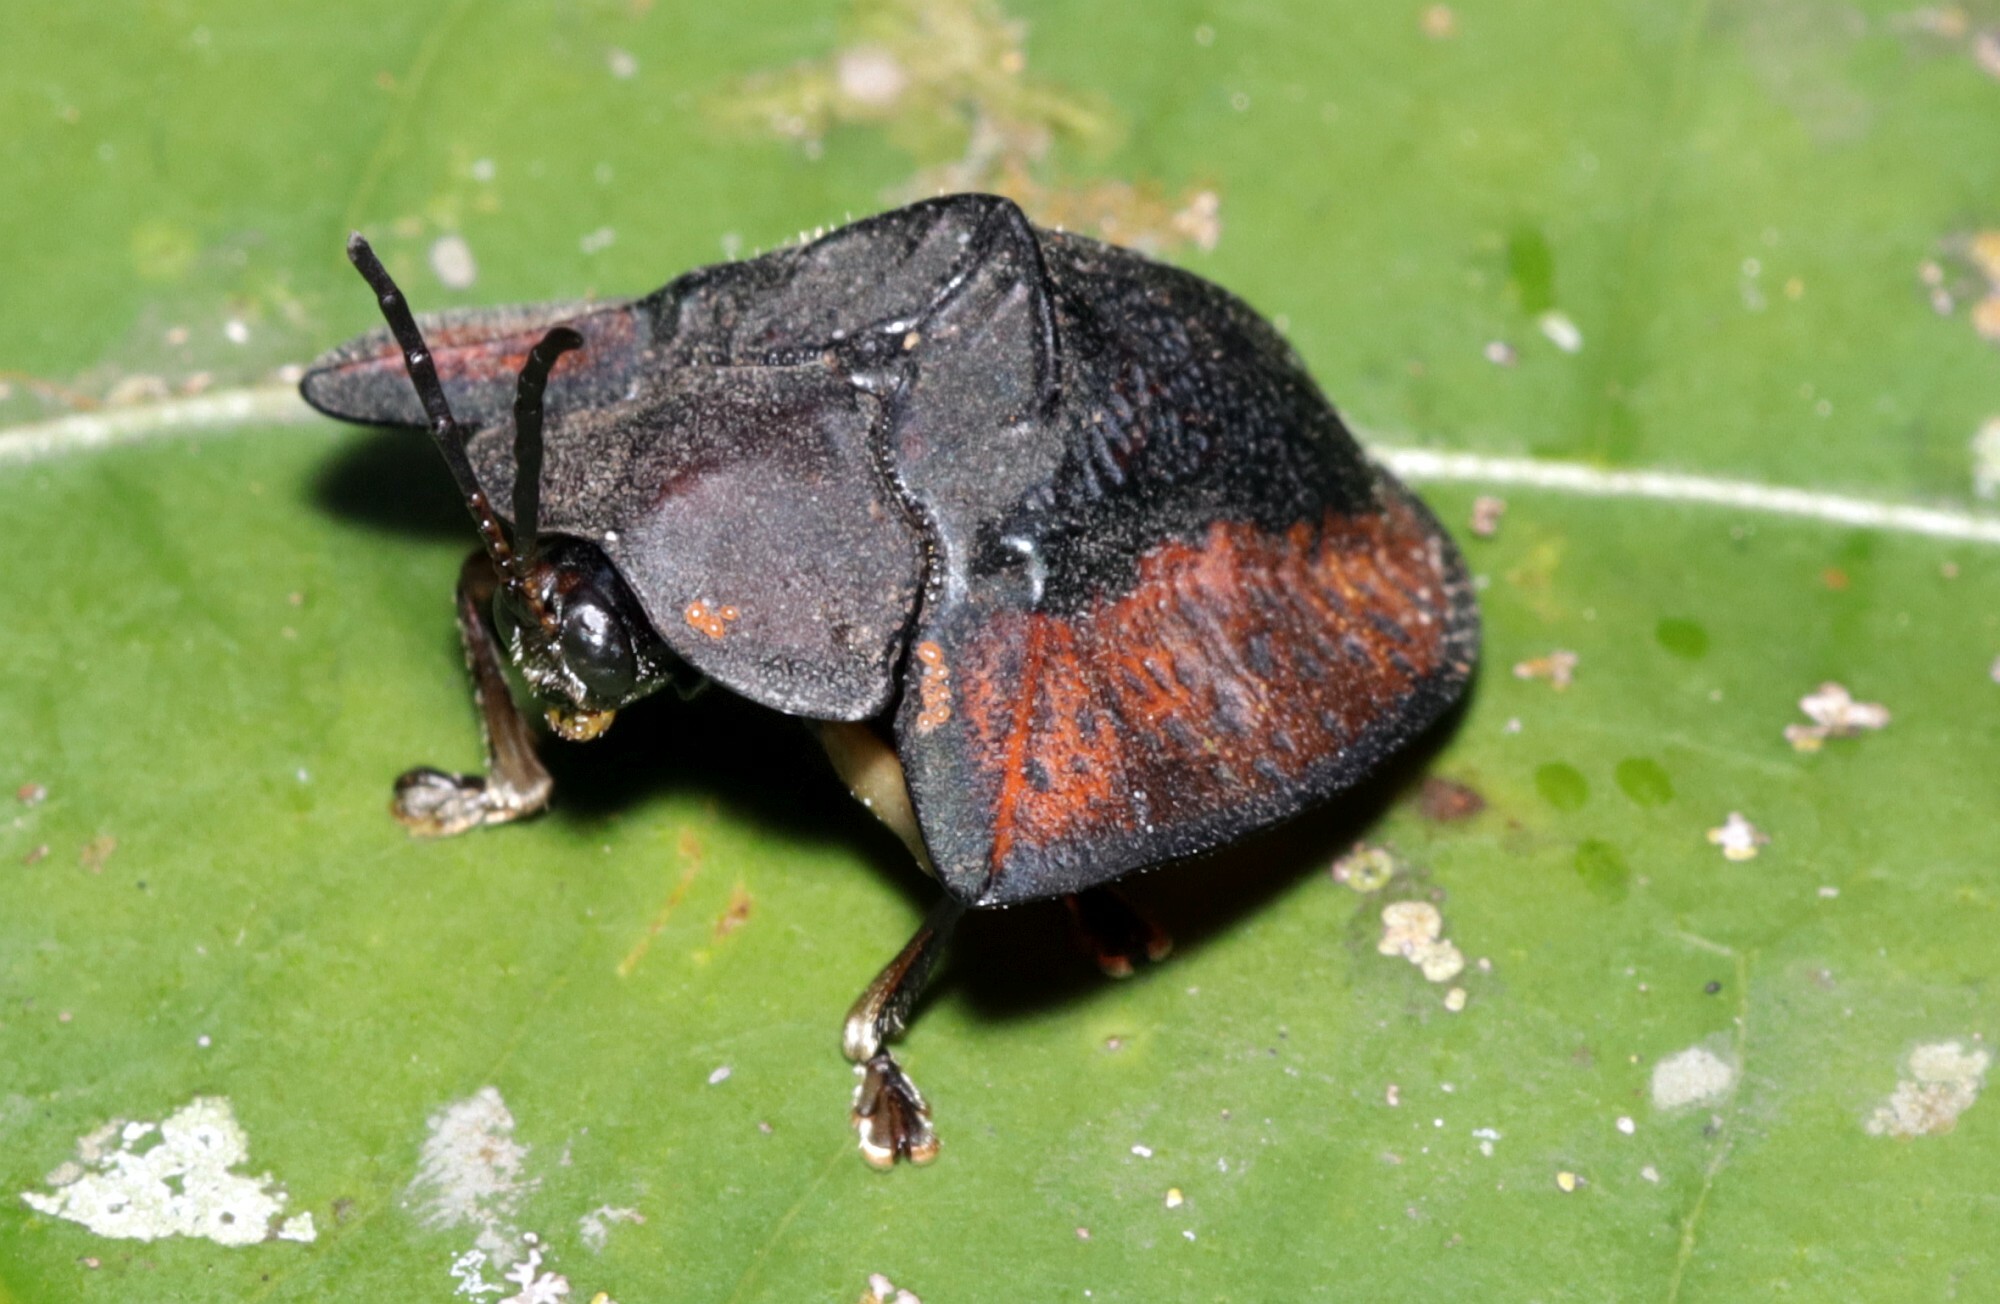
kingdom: Animalia
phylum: Arthropoda
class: Insecta
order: Coleoptera
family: Chrysomelidae
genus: Dorynota
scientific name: Dorynota electa
